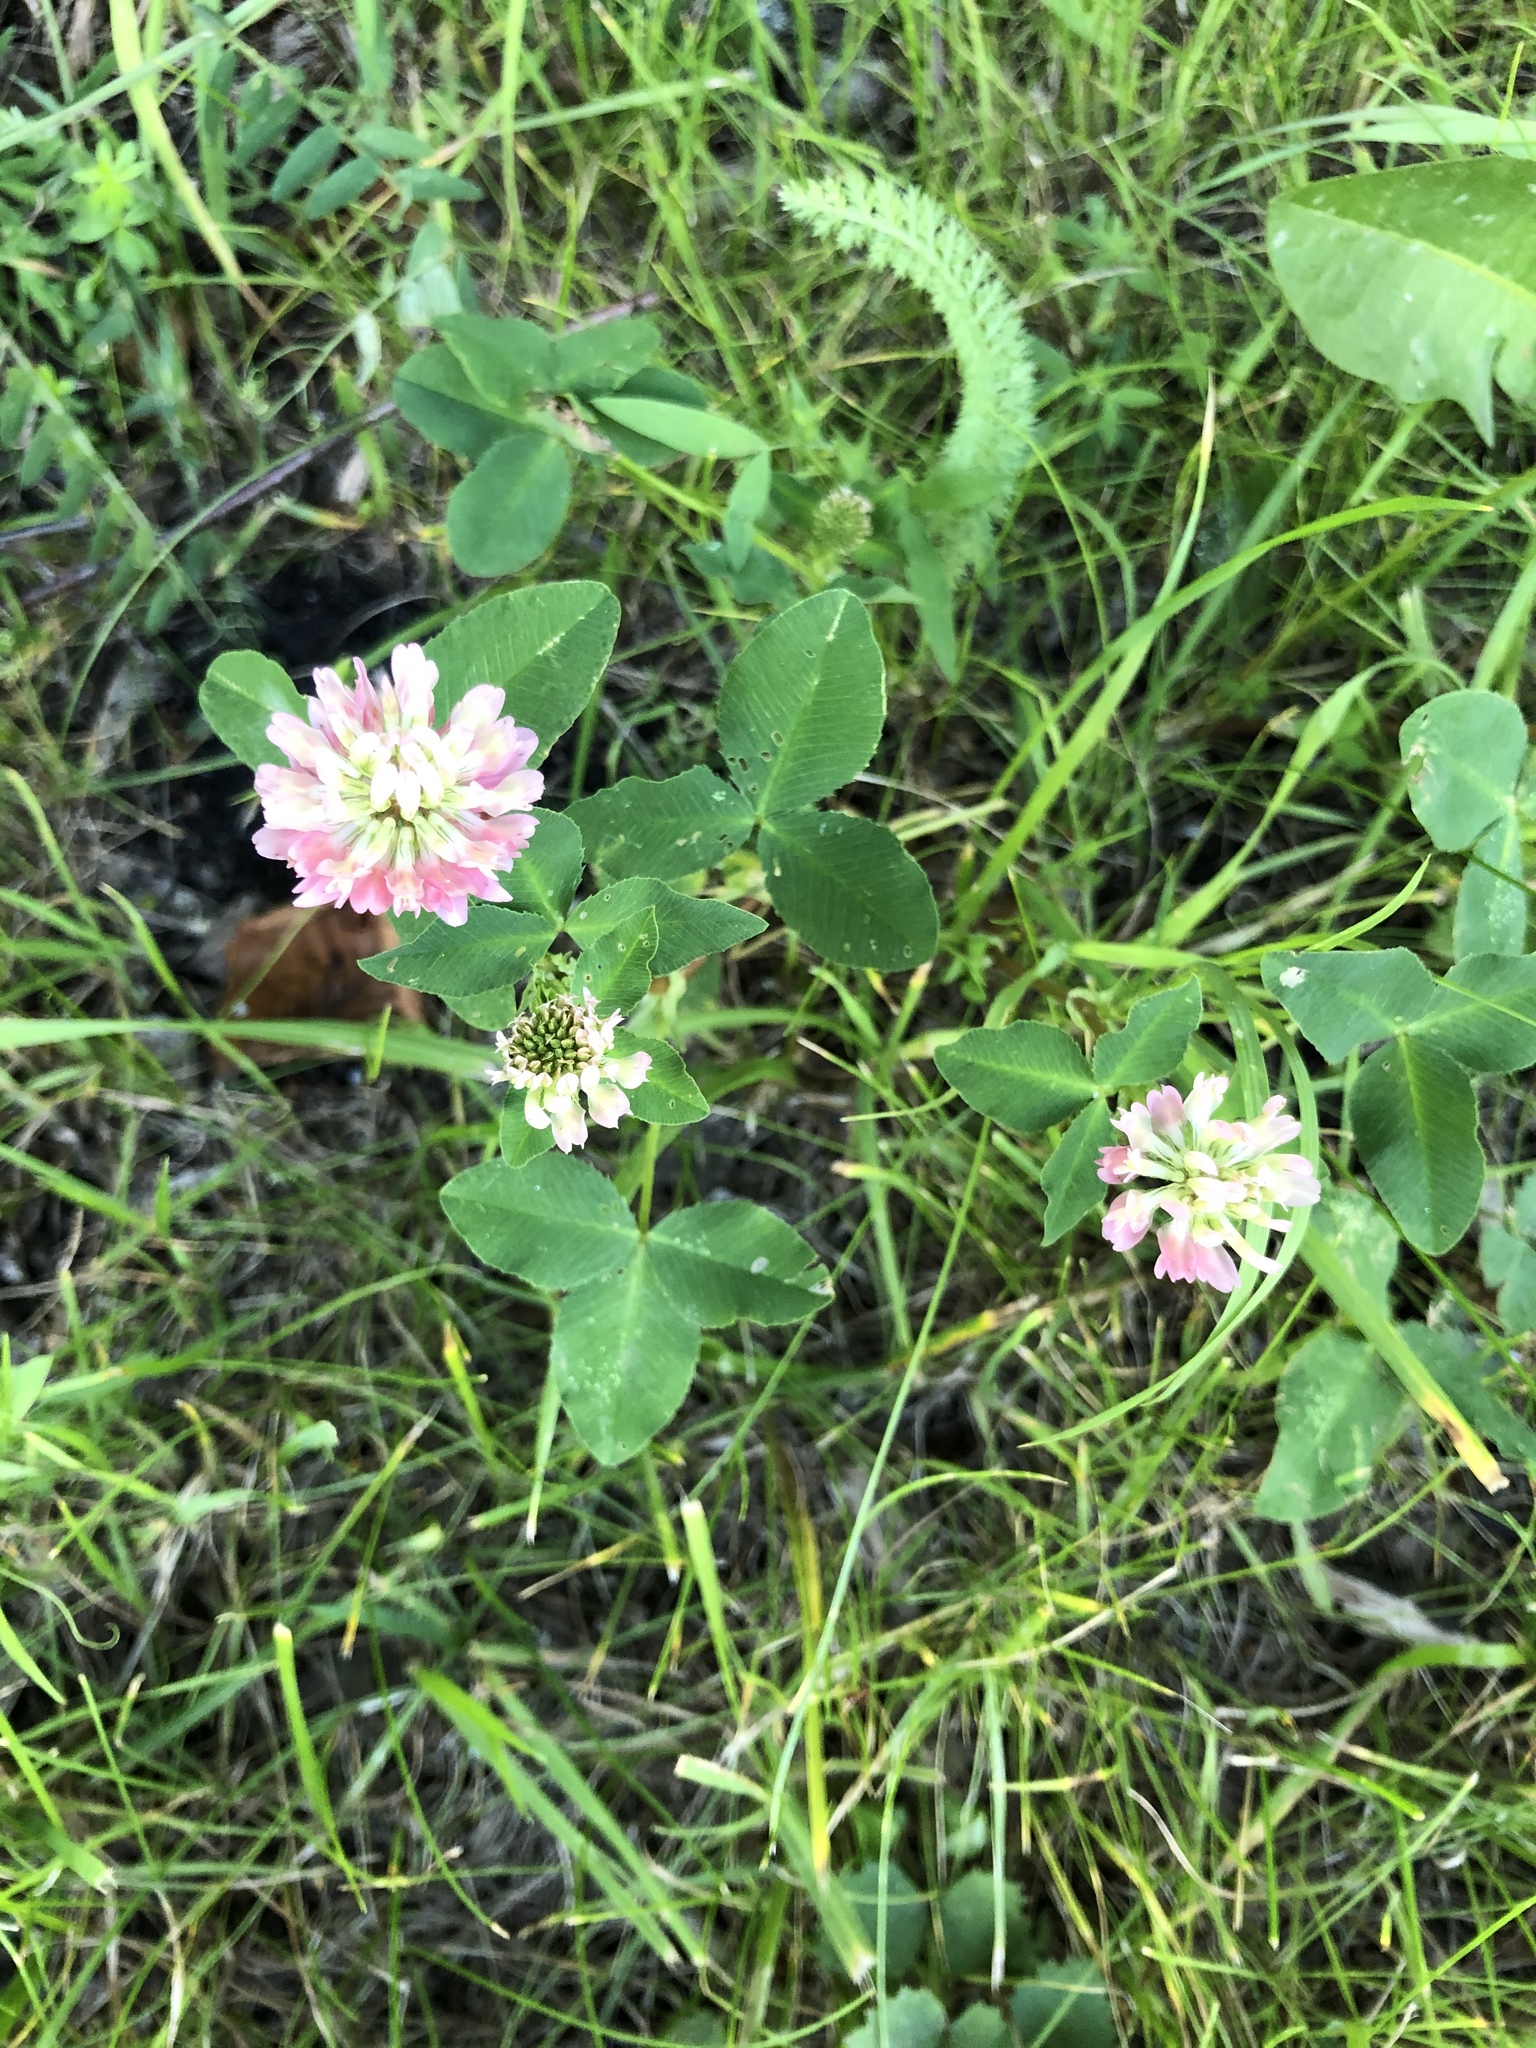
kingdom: Plantae
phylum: Tracheophyta
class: Magnoliopsida
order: Fabales
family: Fabaceae
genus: Trifolium
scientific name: Trifolium hybridum
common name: Alsike clover
